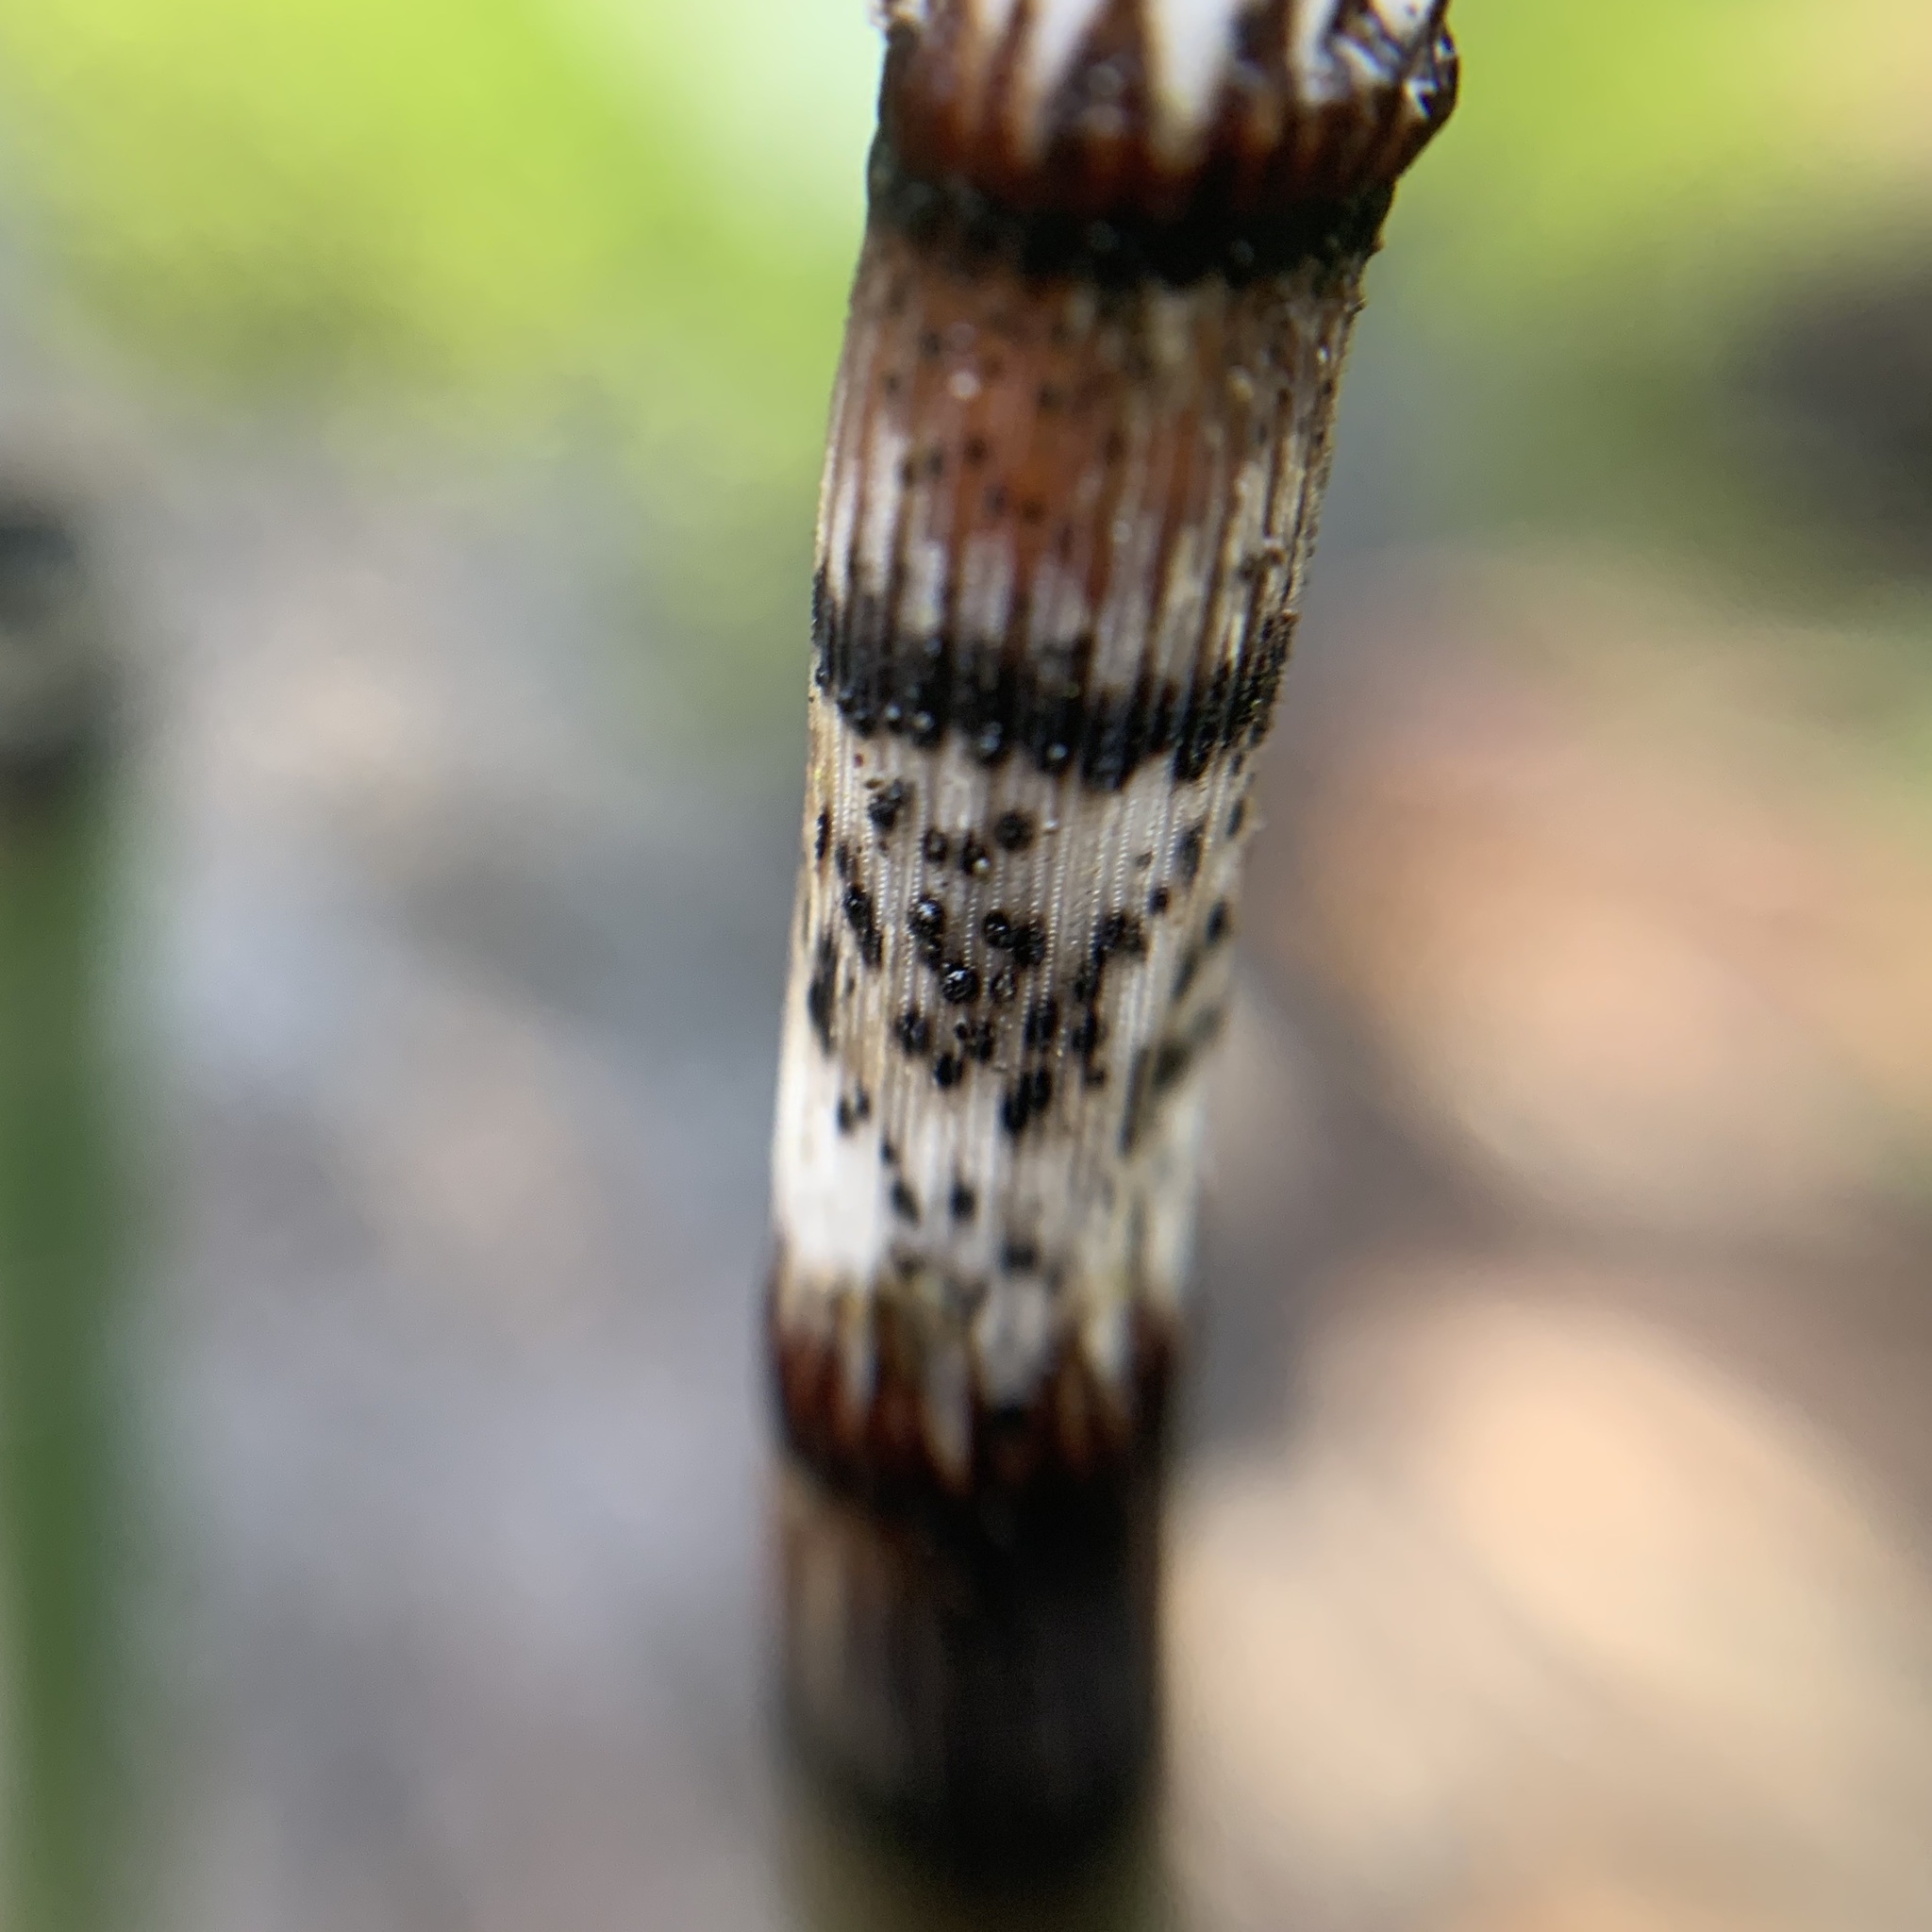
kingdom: Plantae
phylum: Tracheophyta
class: Polypodiopsida
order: Equisetales
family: Equisetaceae
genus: Equisetum
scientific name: Equisetum praealtum
